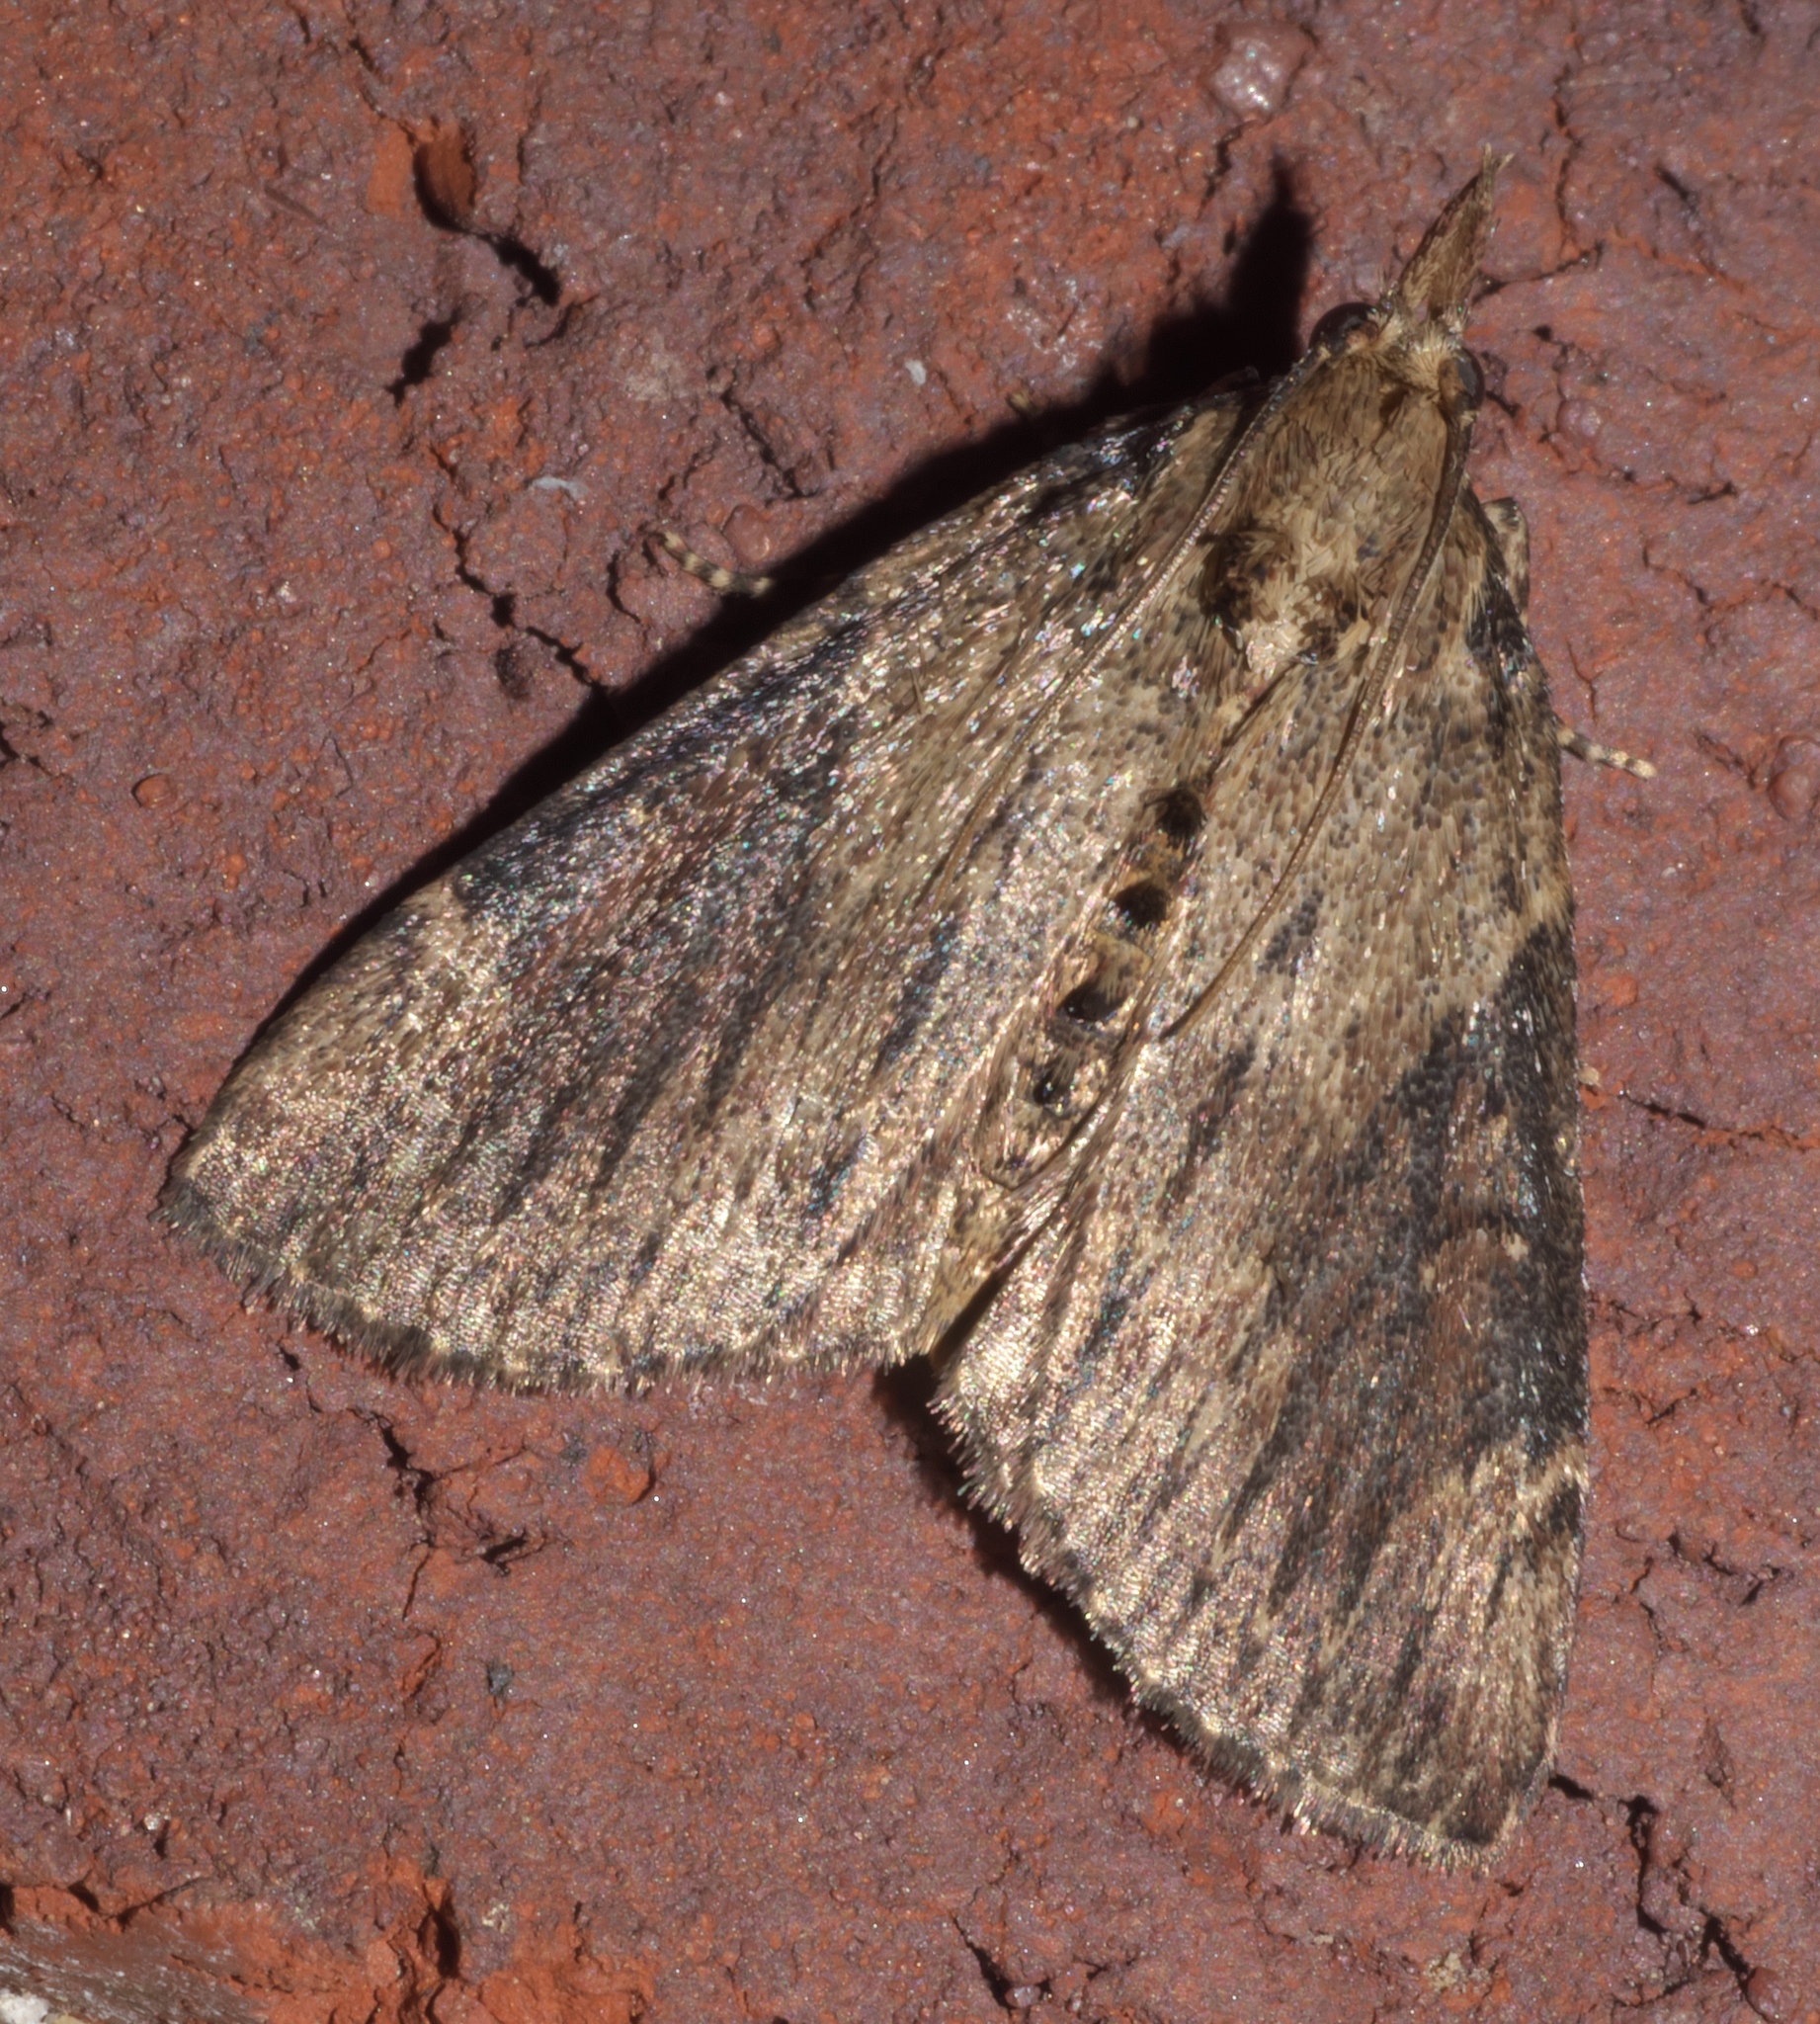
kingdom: Animalia
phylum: Arthropoda
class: Insecta
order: Lepidoptera
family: Pyralidae
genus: Omphalocera
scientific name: Omphalocera cariosa
